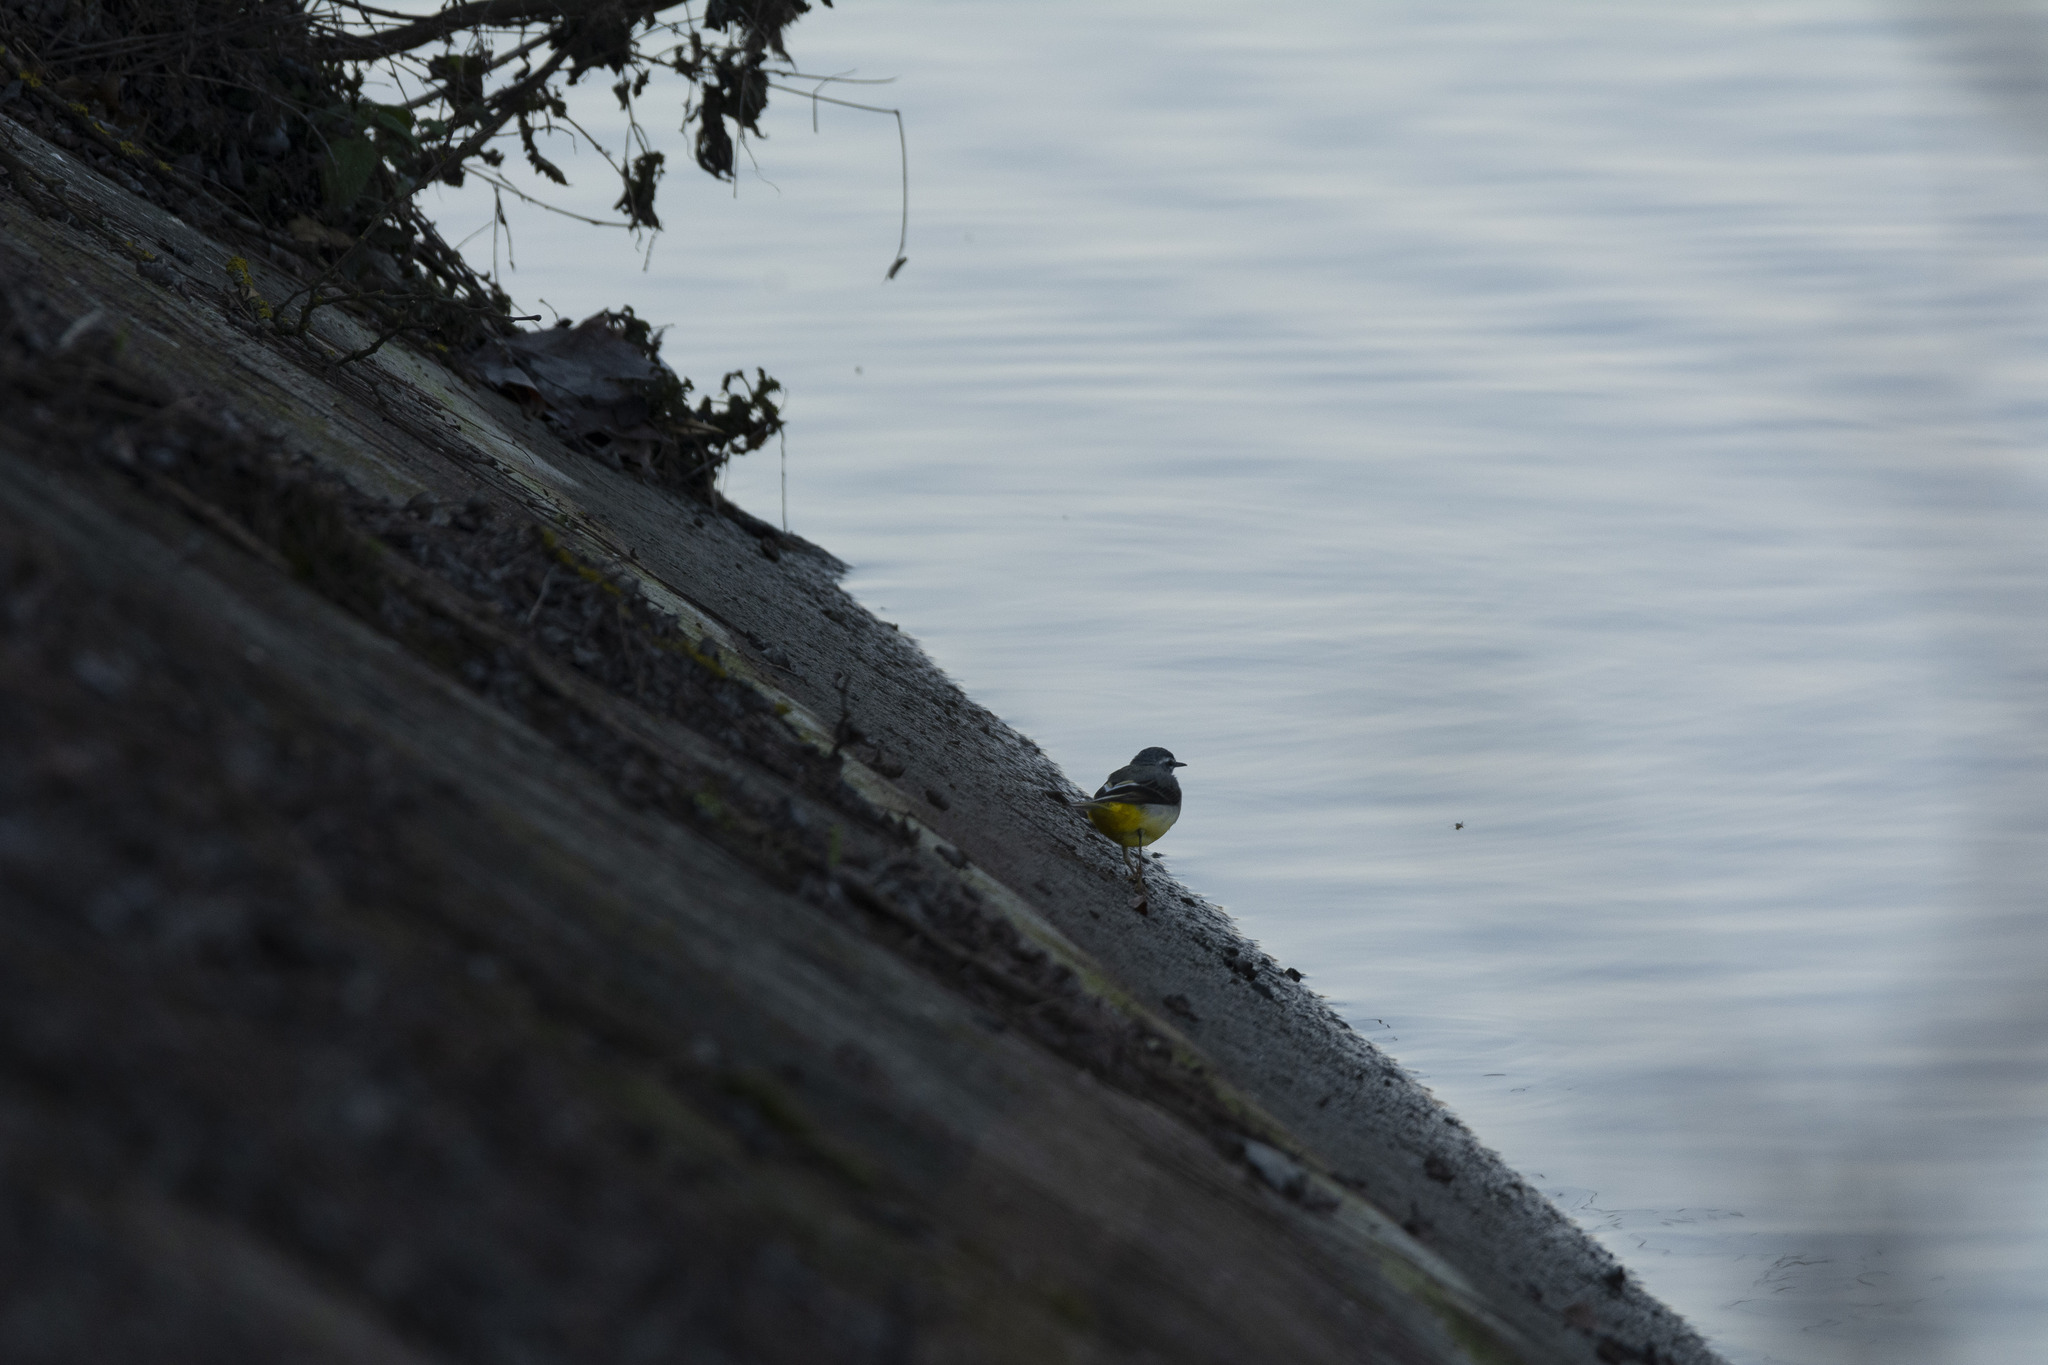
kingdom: Animalia
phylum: Chordata
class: Aves
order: Passeriformes
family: Motacillidae
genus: Motacilla
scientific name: Motacilla cinerea
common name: Grey wagtail
